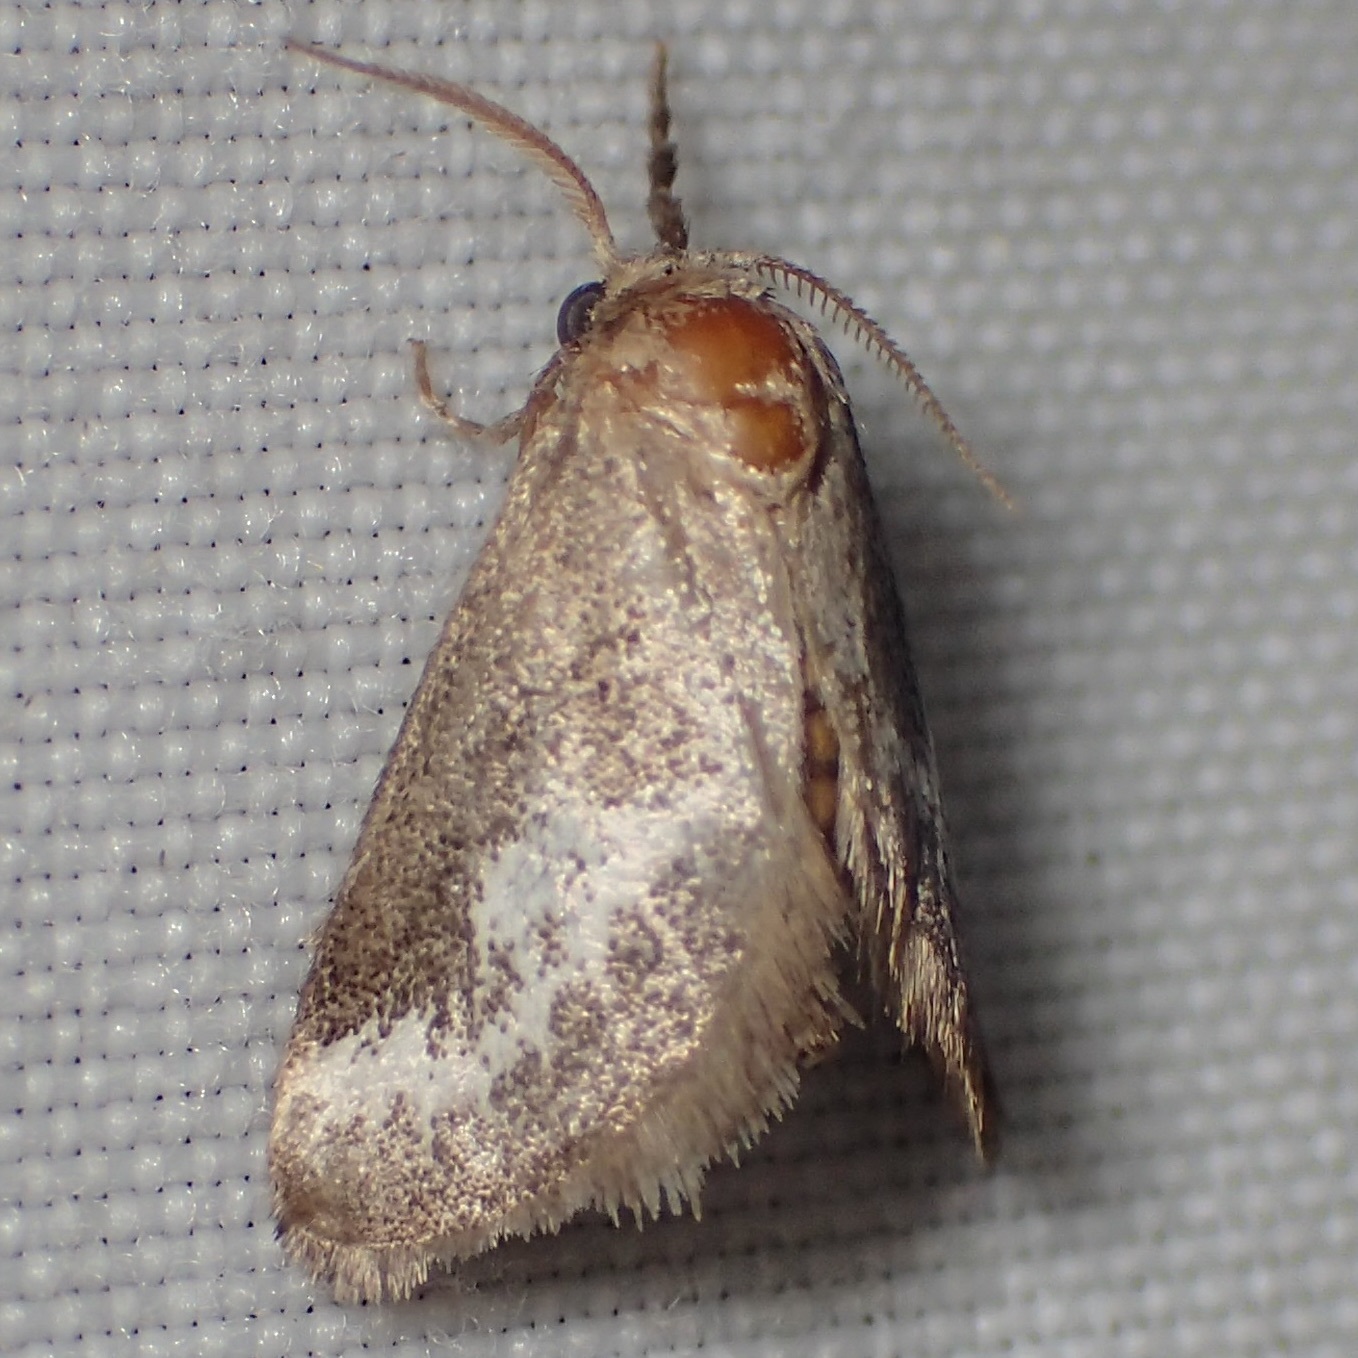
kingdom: Animalia
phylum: Arthropoda
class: Insecta
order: Lepidoptera
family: Limacodidae
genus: Cryptophobetron
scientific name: Cryptophobetron oropeso
